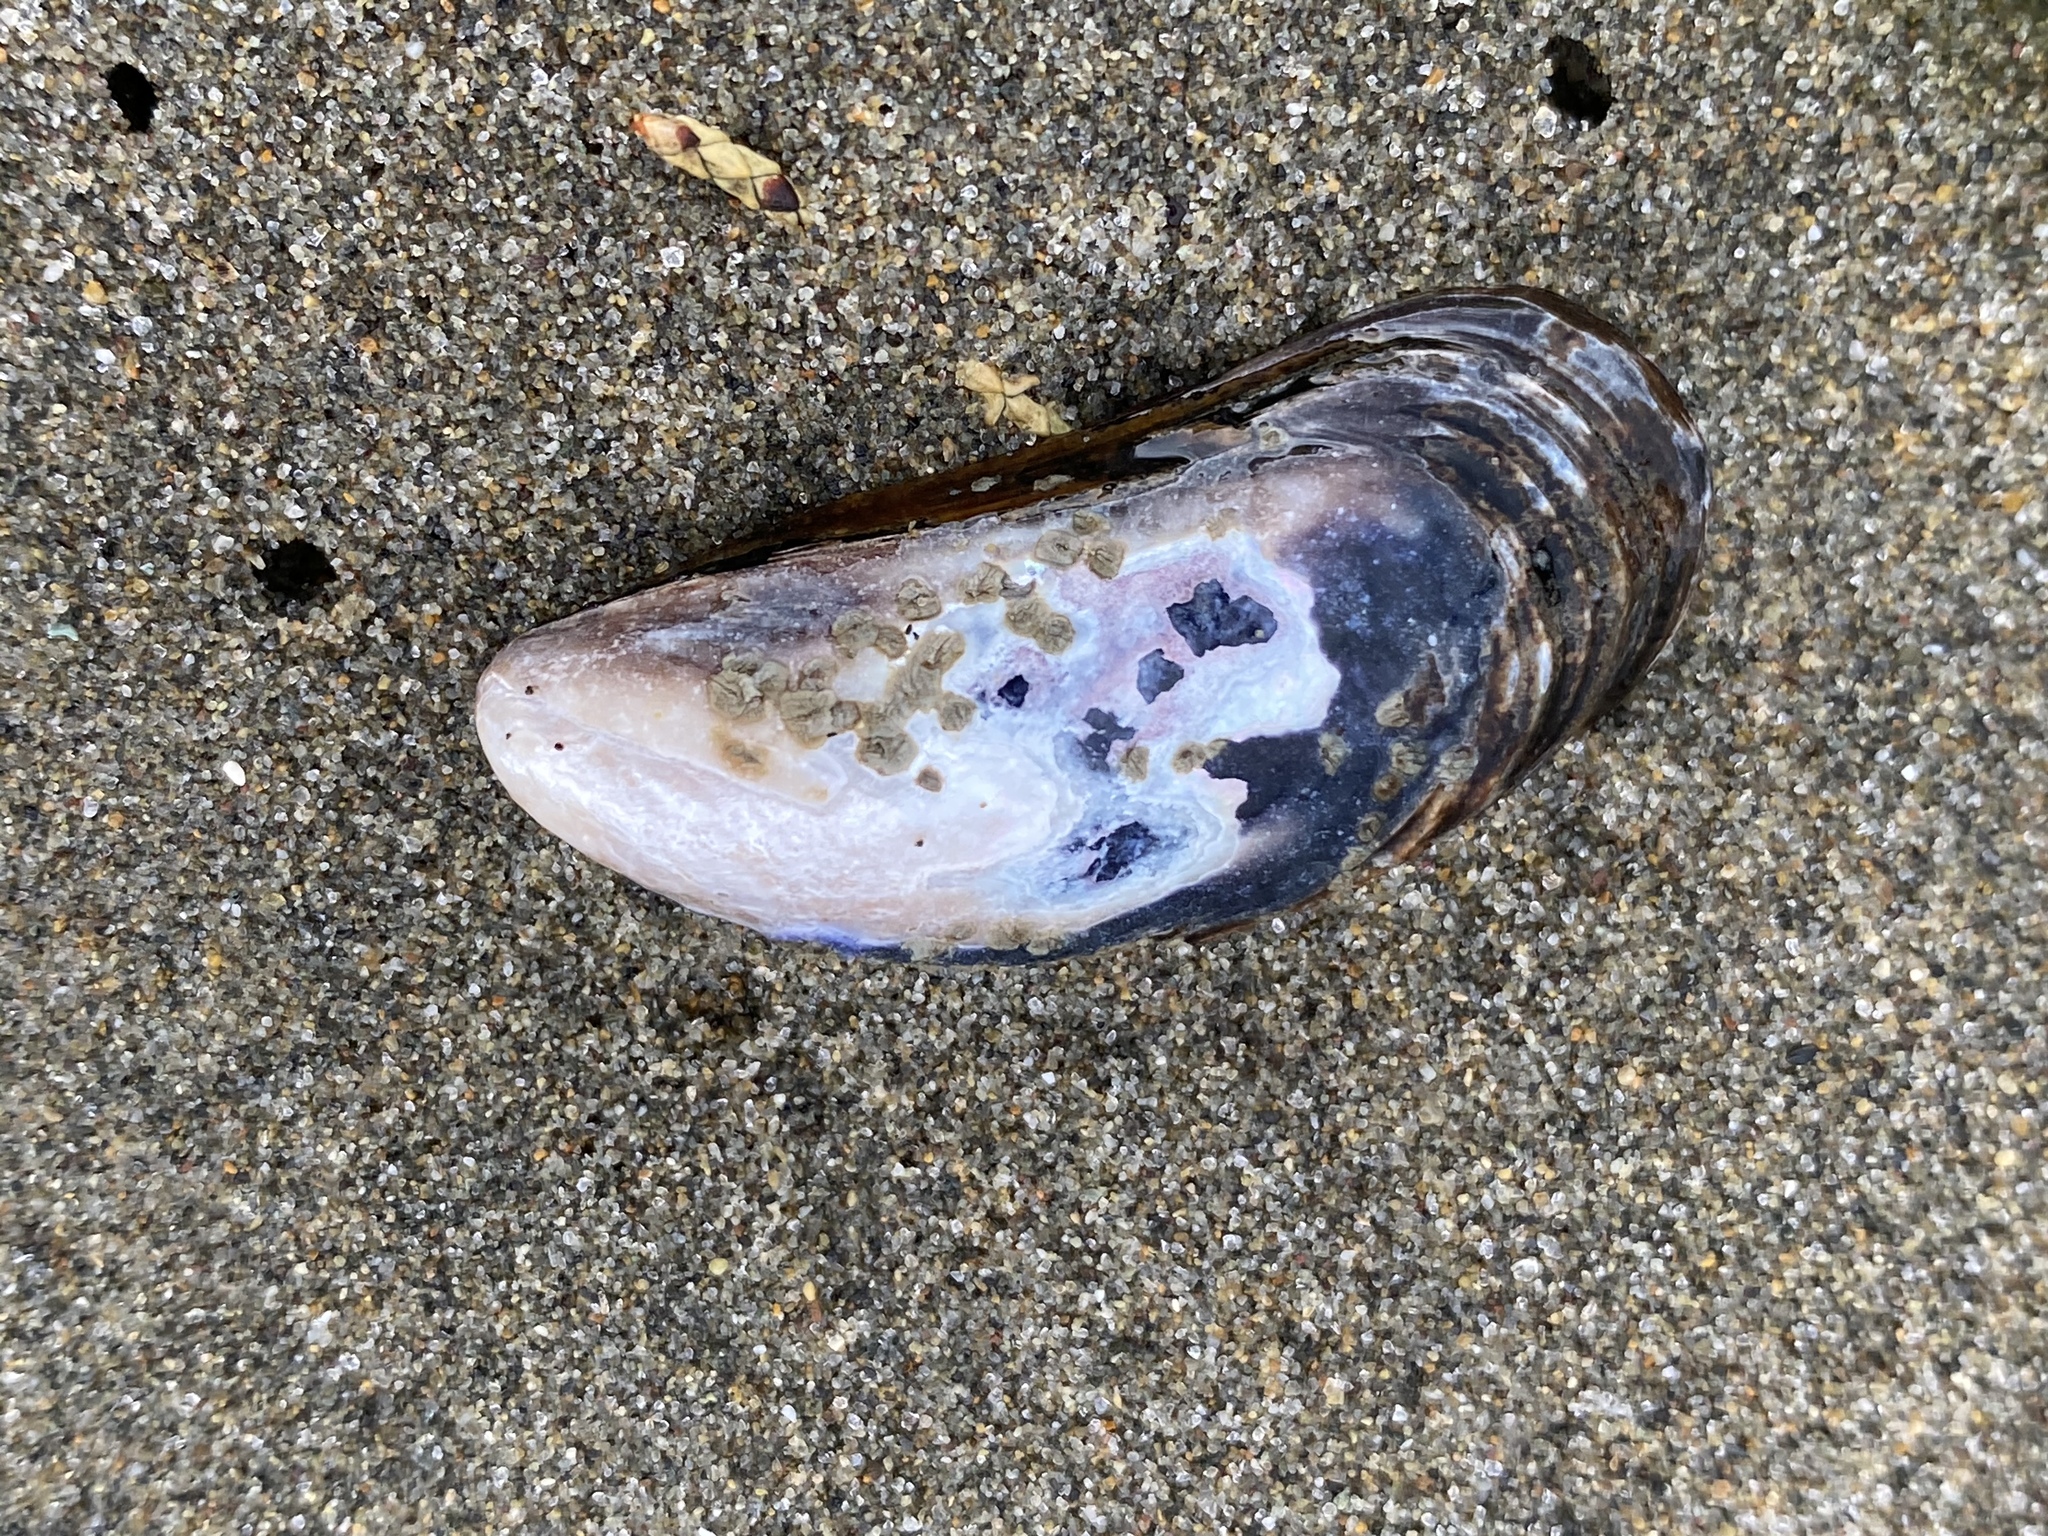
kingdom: Animalia
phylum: Mollusca
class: Bivalvia
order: Mytilida
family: Mytilidae
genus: Mytilus
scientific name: Mytilus californianus
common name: California mussel
